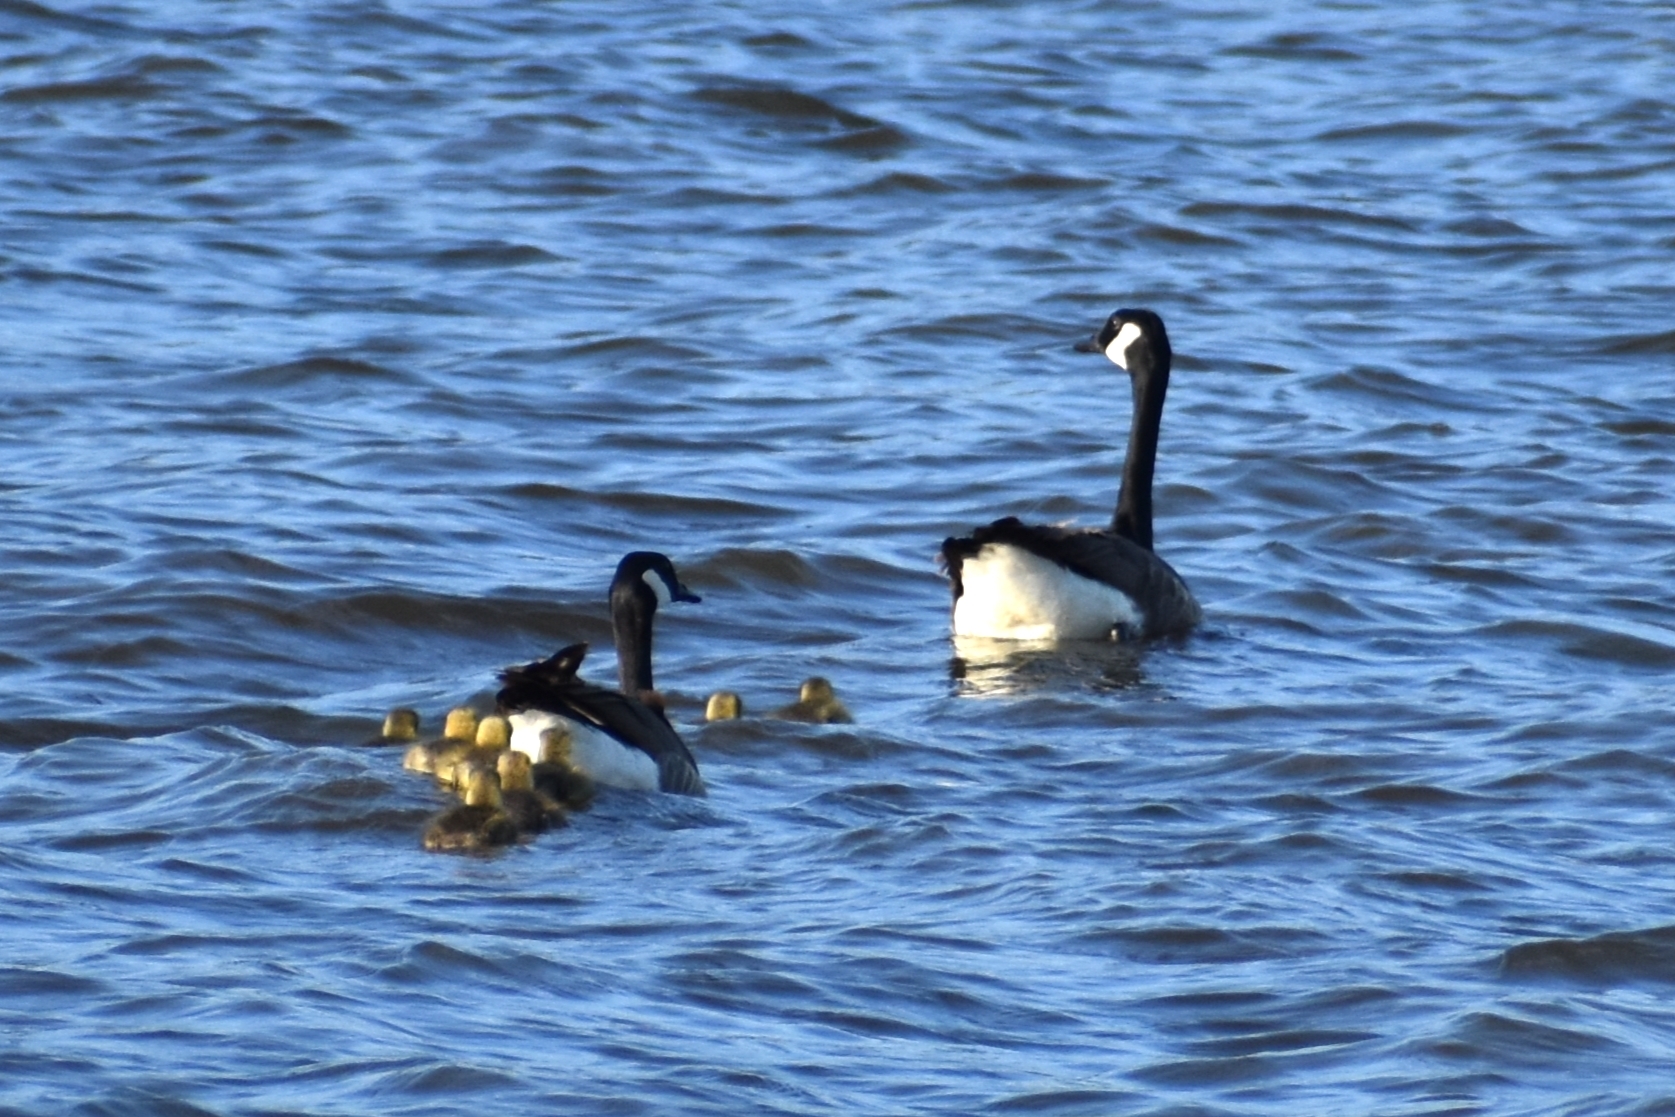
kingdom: Animalia
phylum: Chordata
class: Aves
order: Anseriformes
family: Anatidae
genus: Branta
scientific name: Branta canadensis
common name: Canada goose
